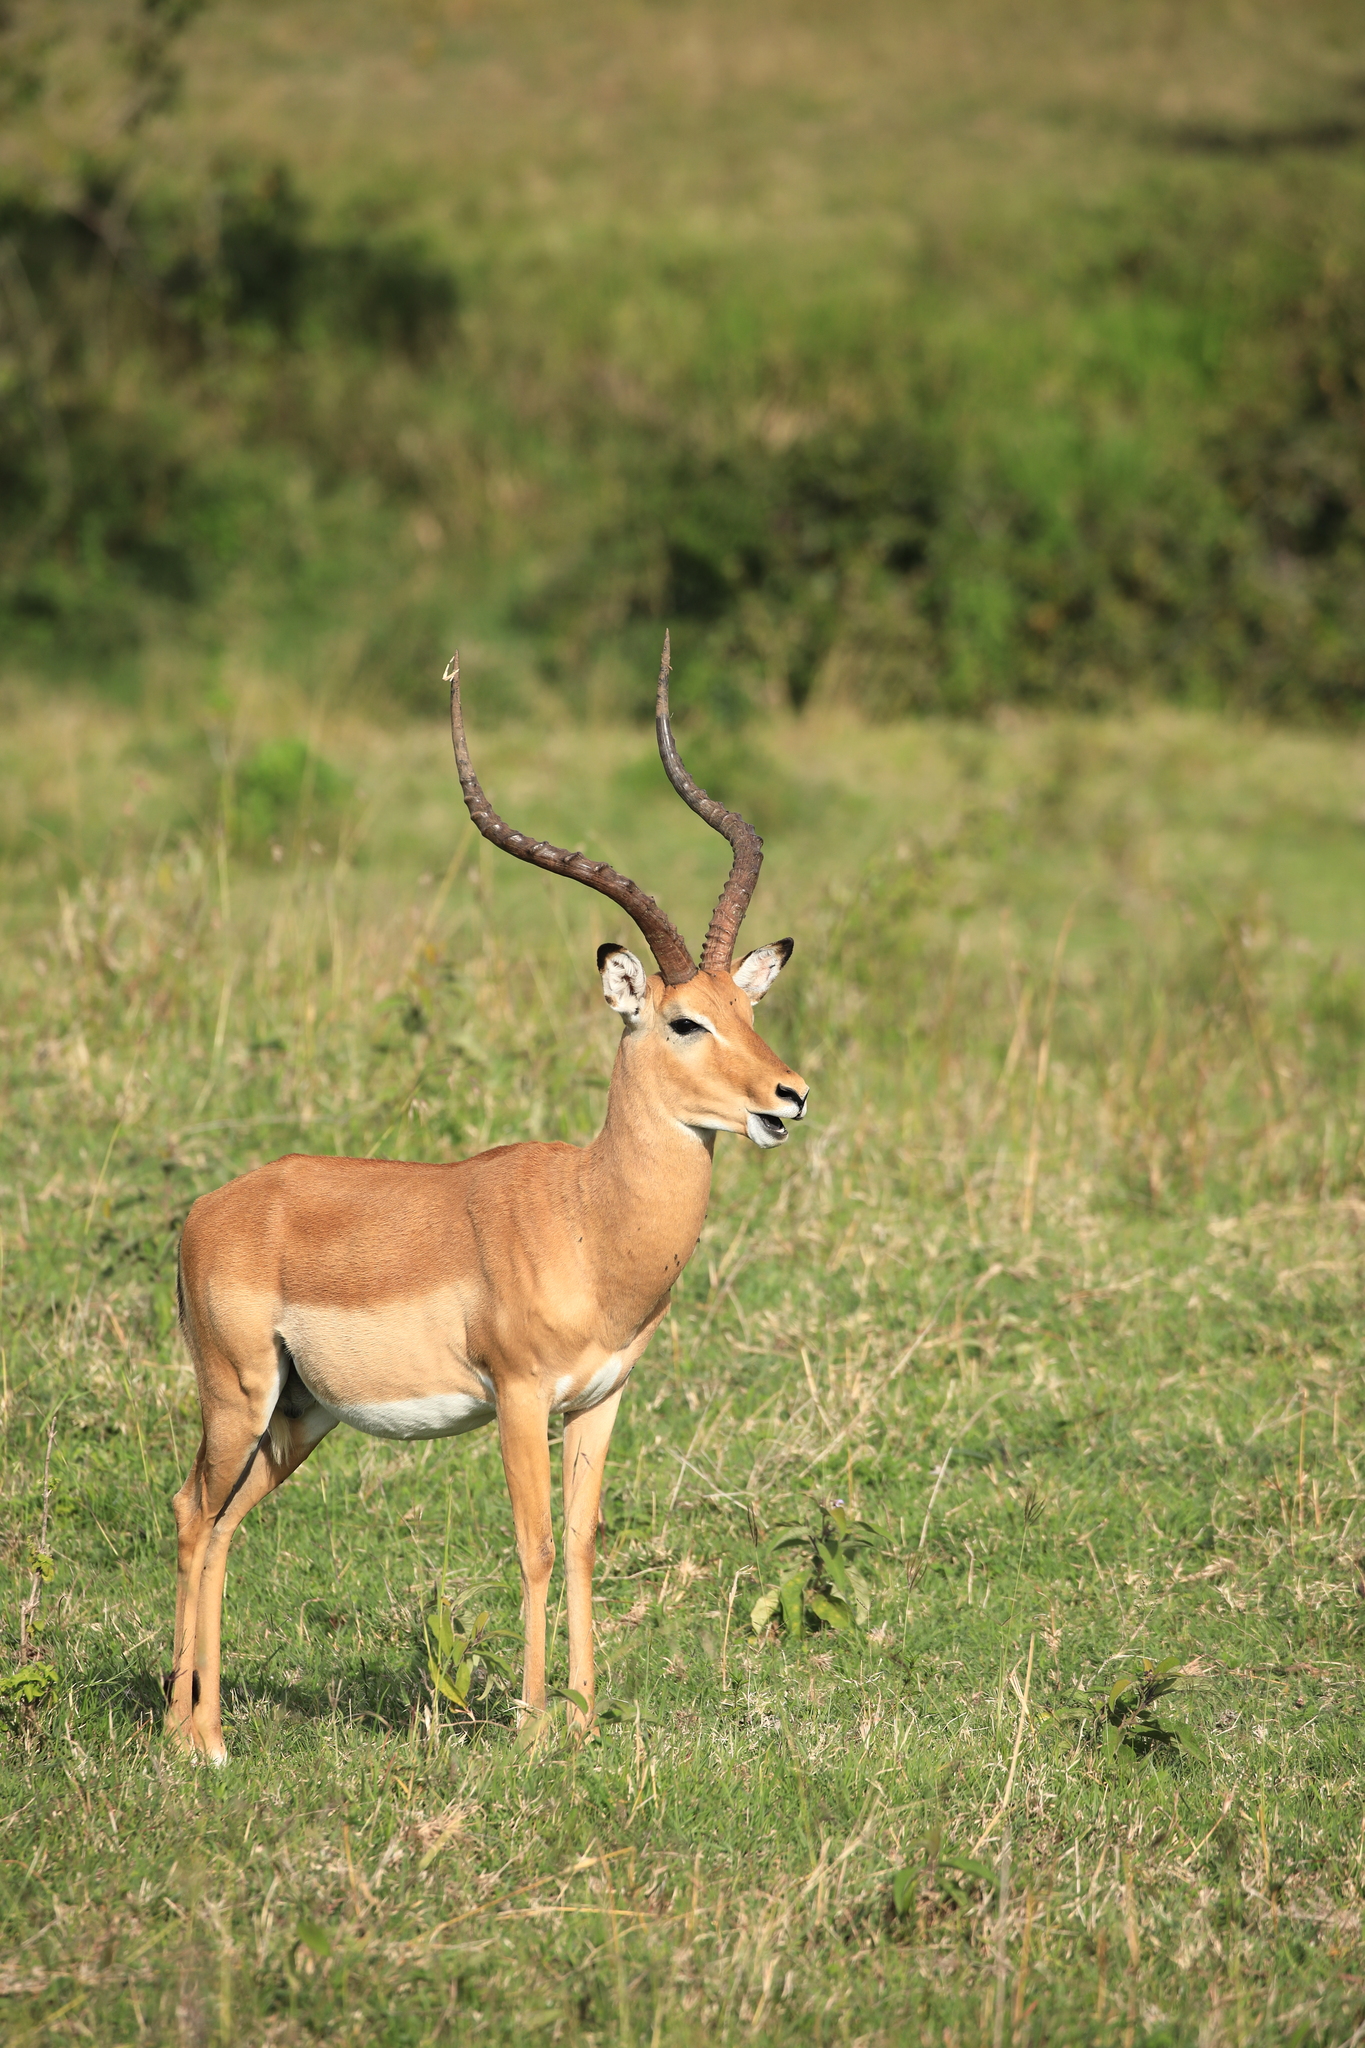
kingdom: Animalia
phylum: Chordata
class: Mammalia
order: Artiodactyla
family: Bovidae
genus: Aepyceros
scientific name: Aepyceros melampus
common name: Impala
